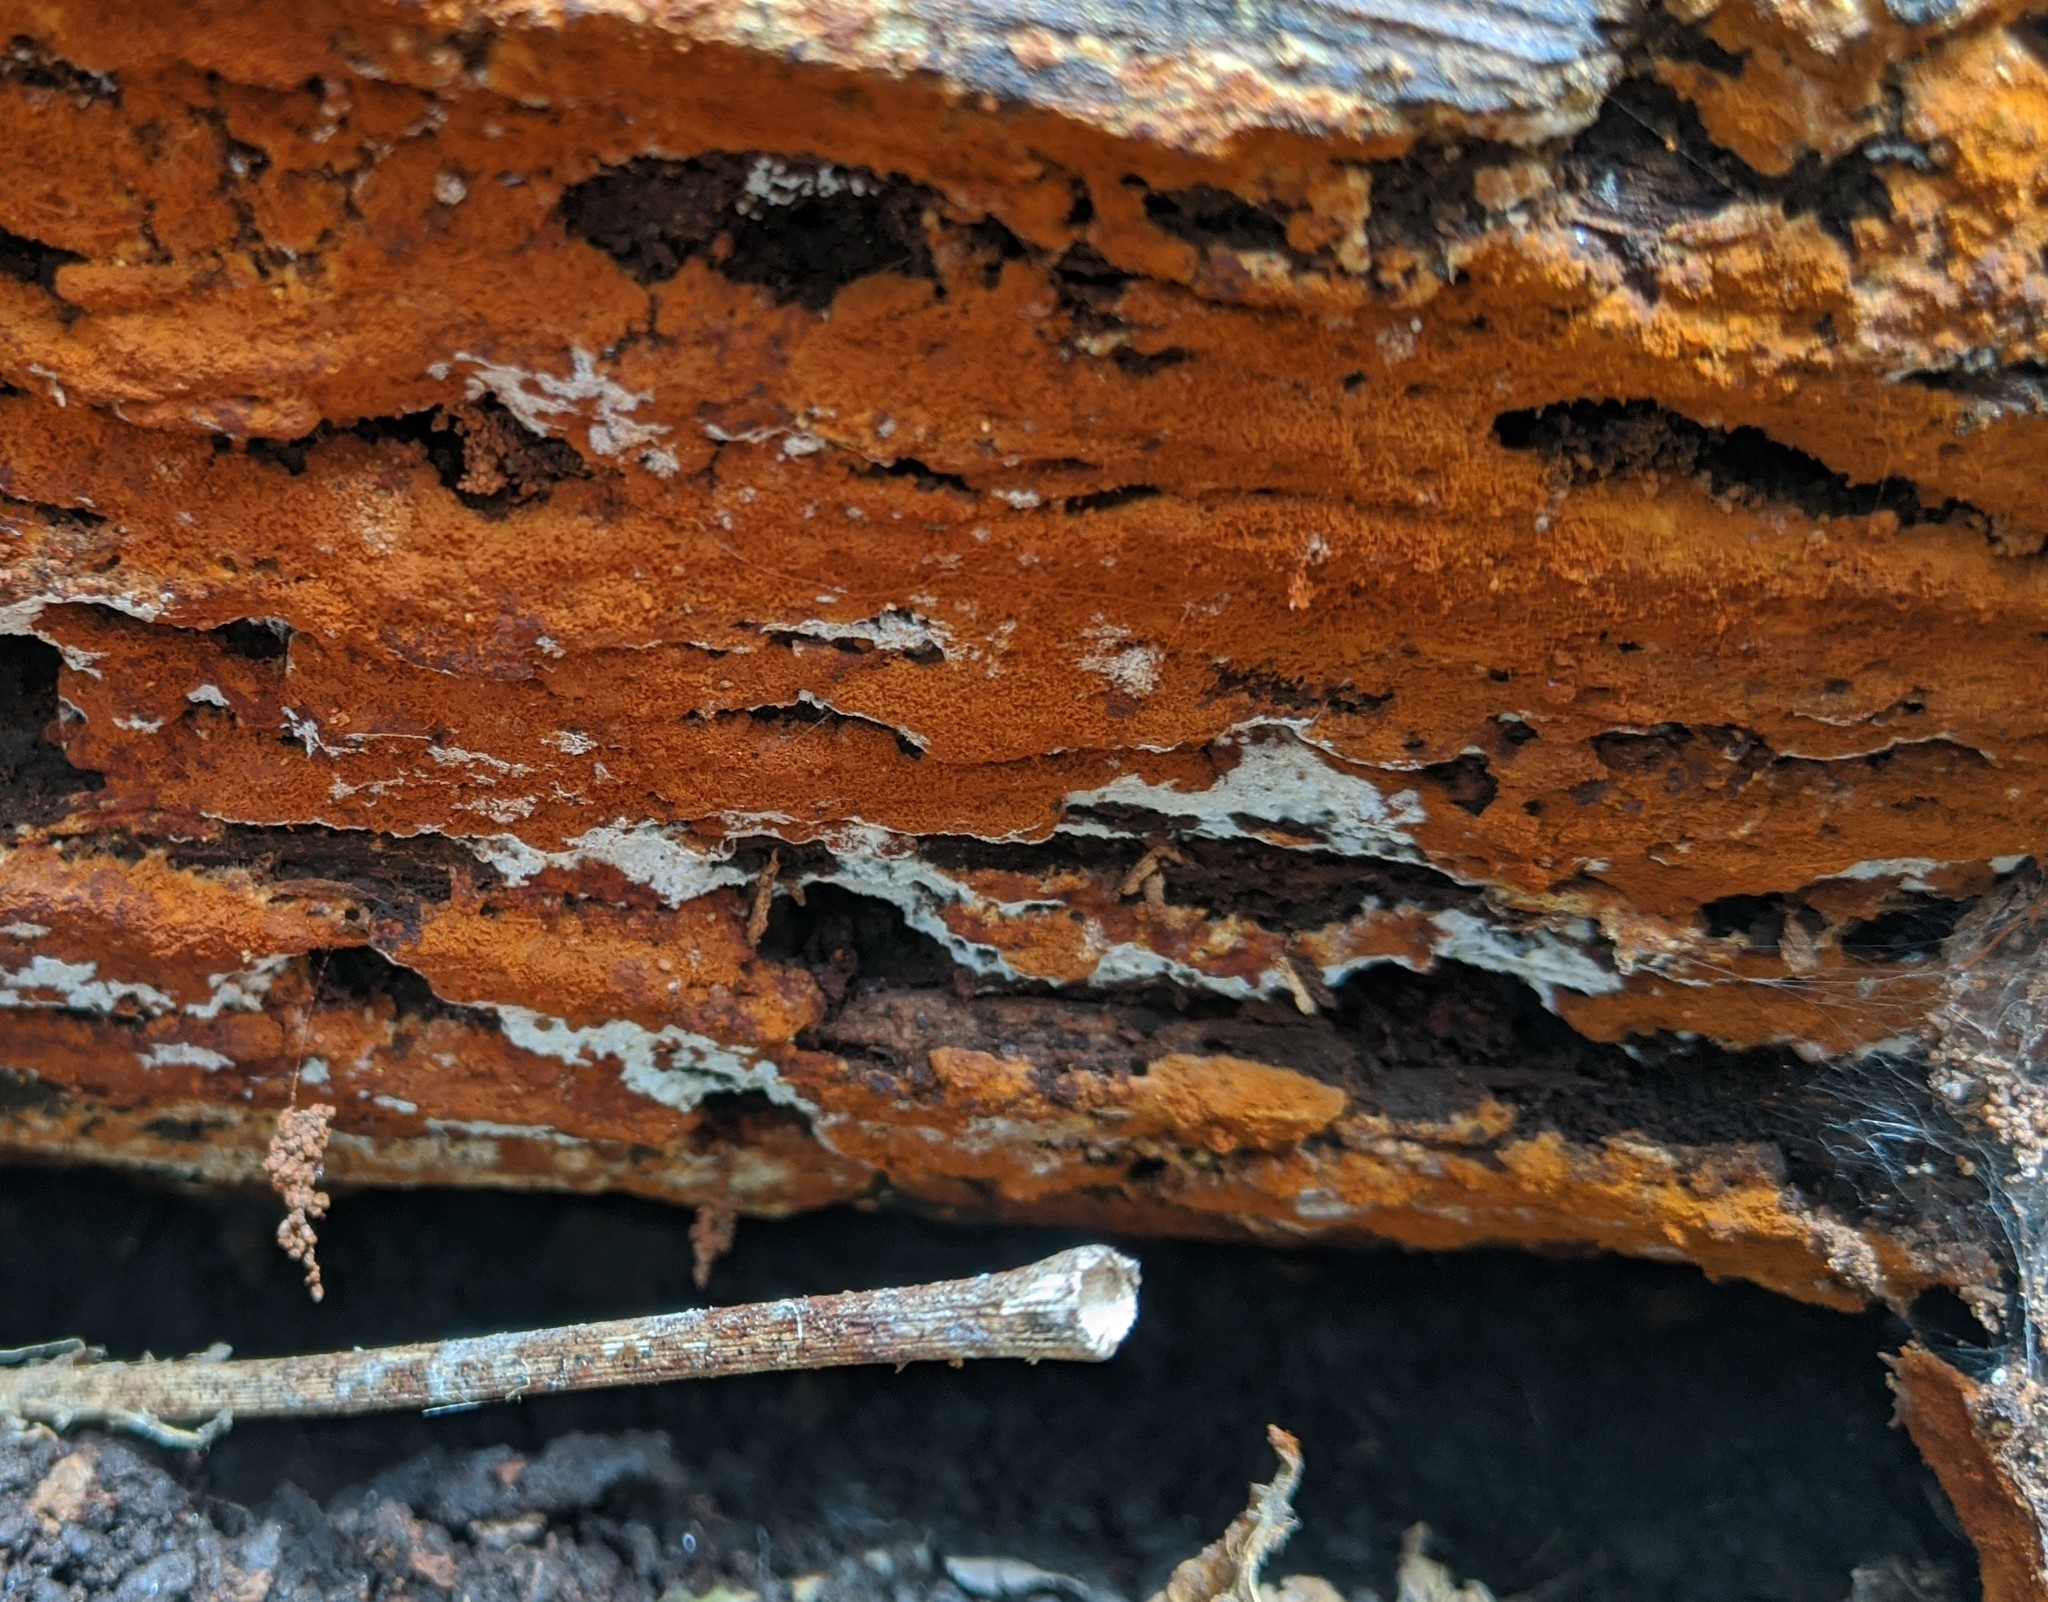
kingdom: Fungi
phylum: Basidiomycota
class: Agaricomycetes
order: Cantharellales
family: Botryobasidiaceae
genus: Botryobasidium
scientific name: Botryobasidium aureum
